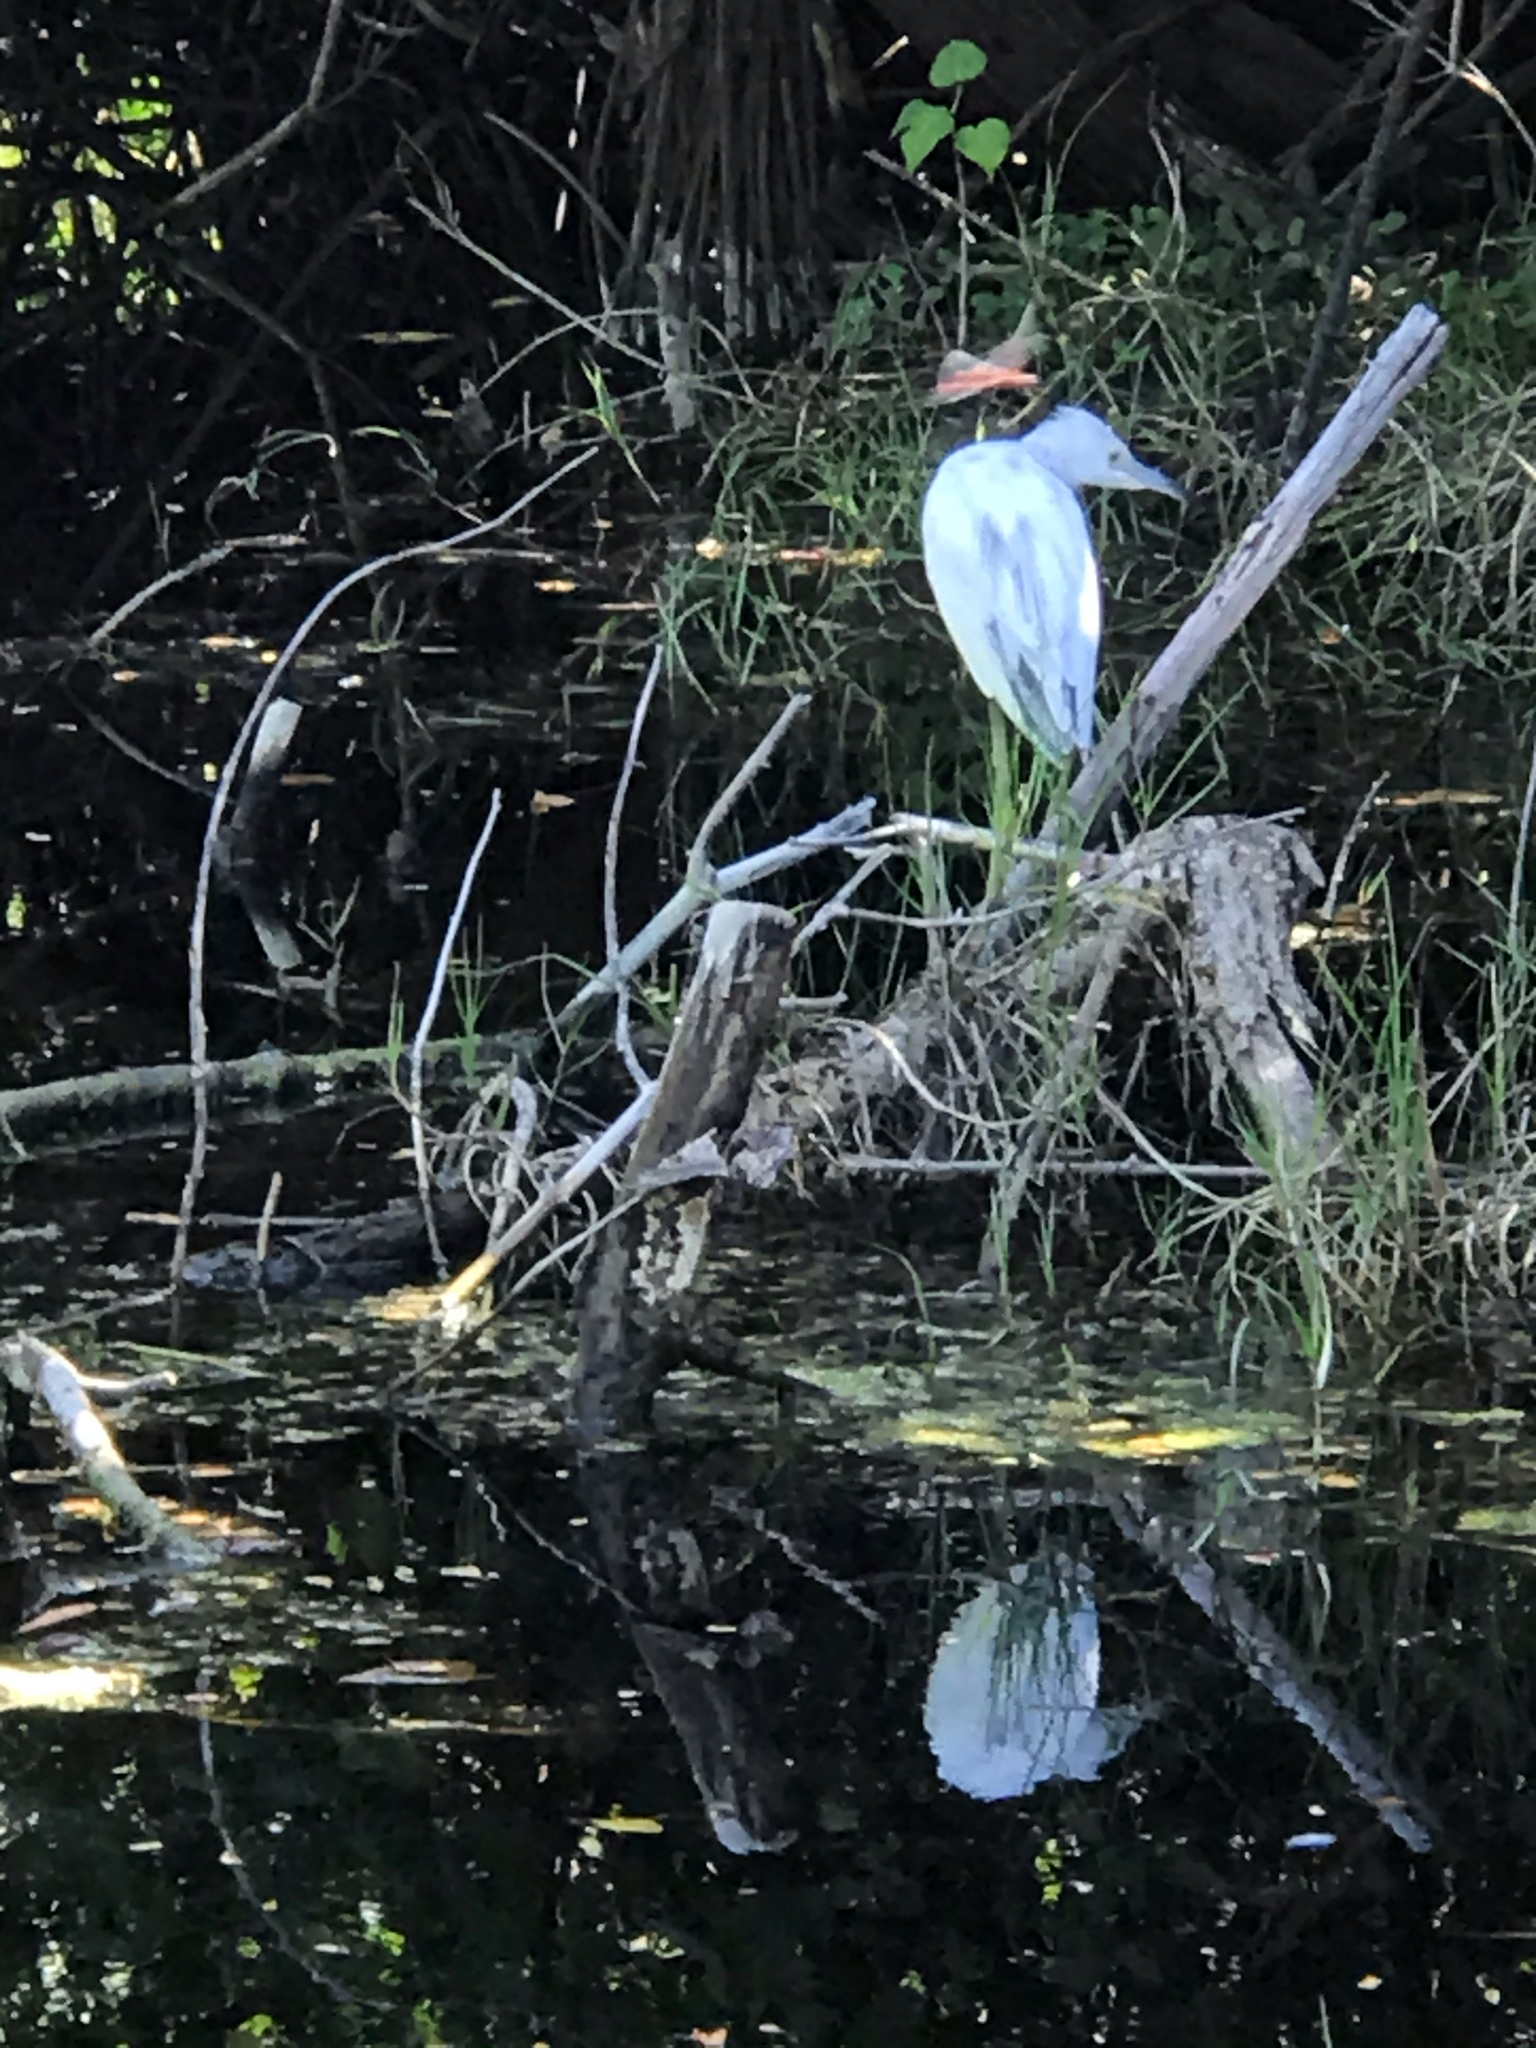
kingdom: Animalia
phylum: Chordata
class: Aves
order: Pelecaniformes
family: Ardeidae
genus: Egretta
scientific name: Egretta caerulea
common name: Little blue heron
